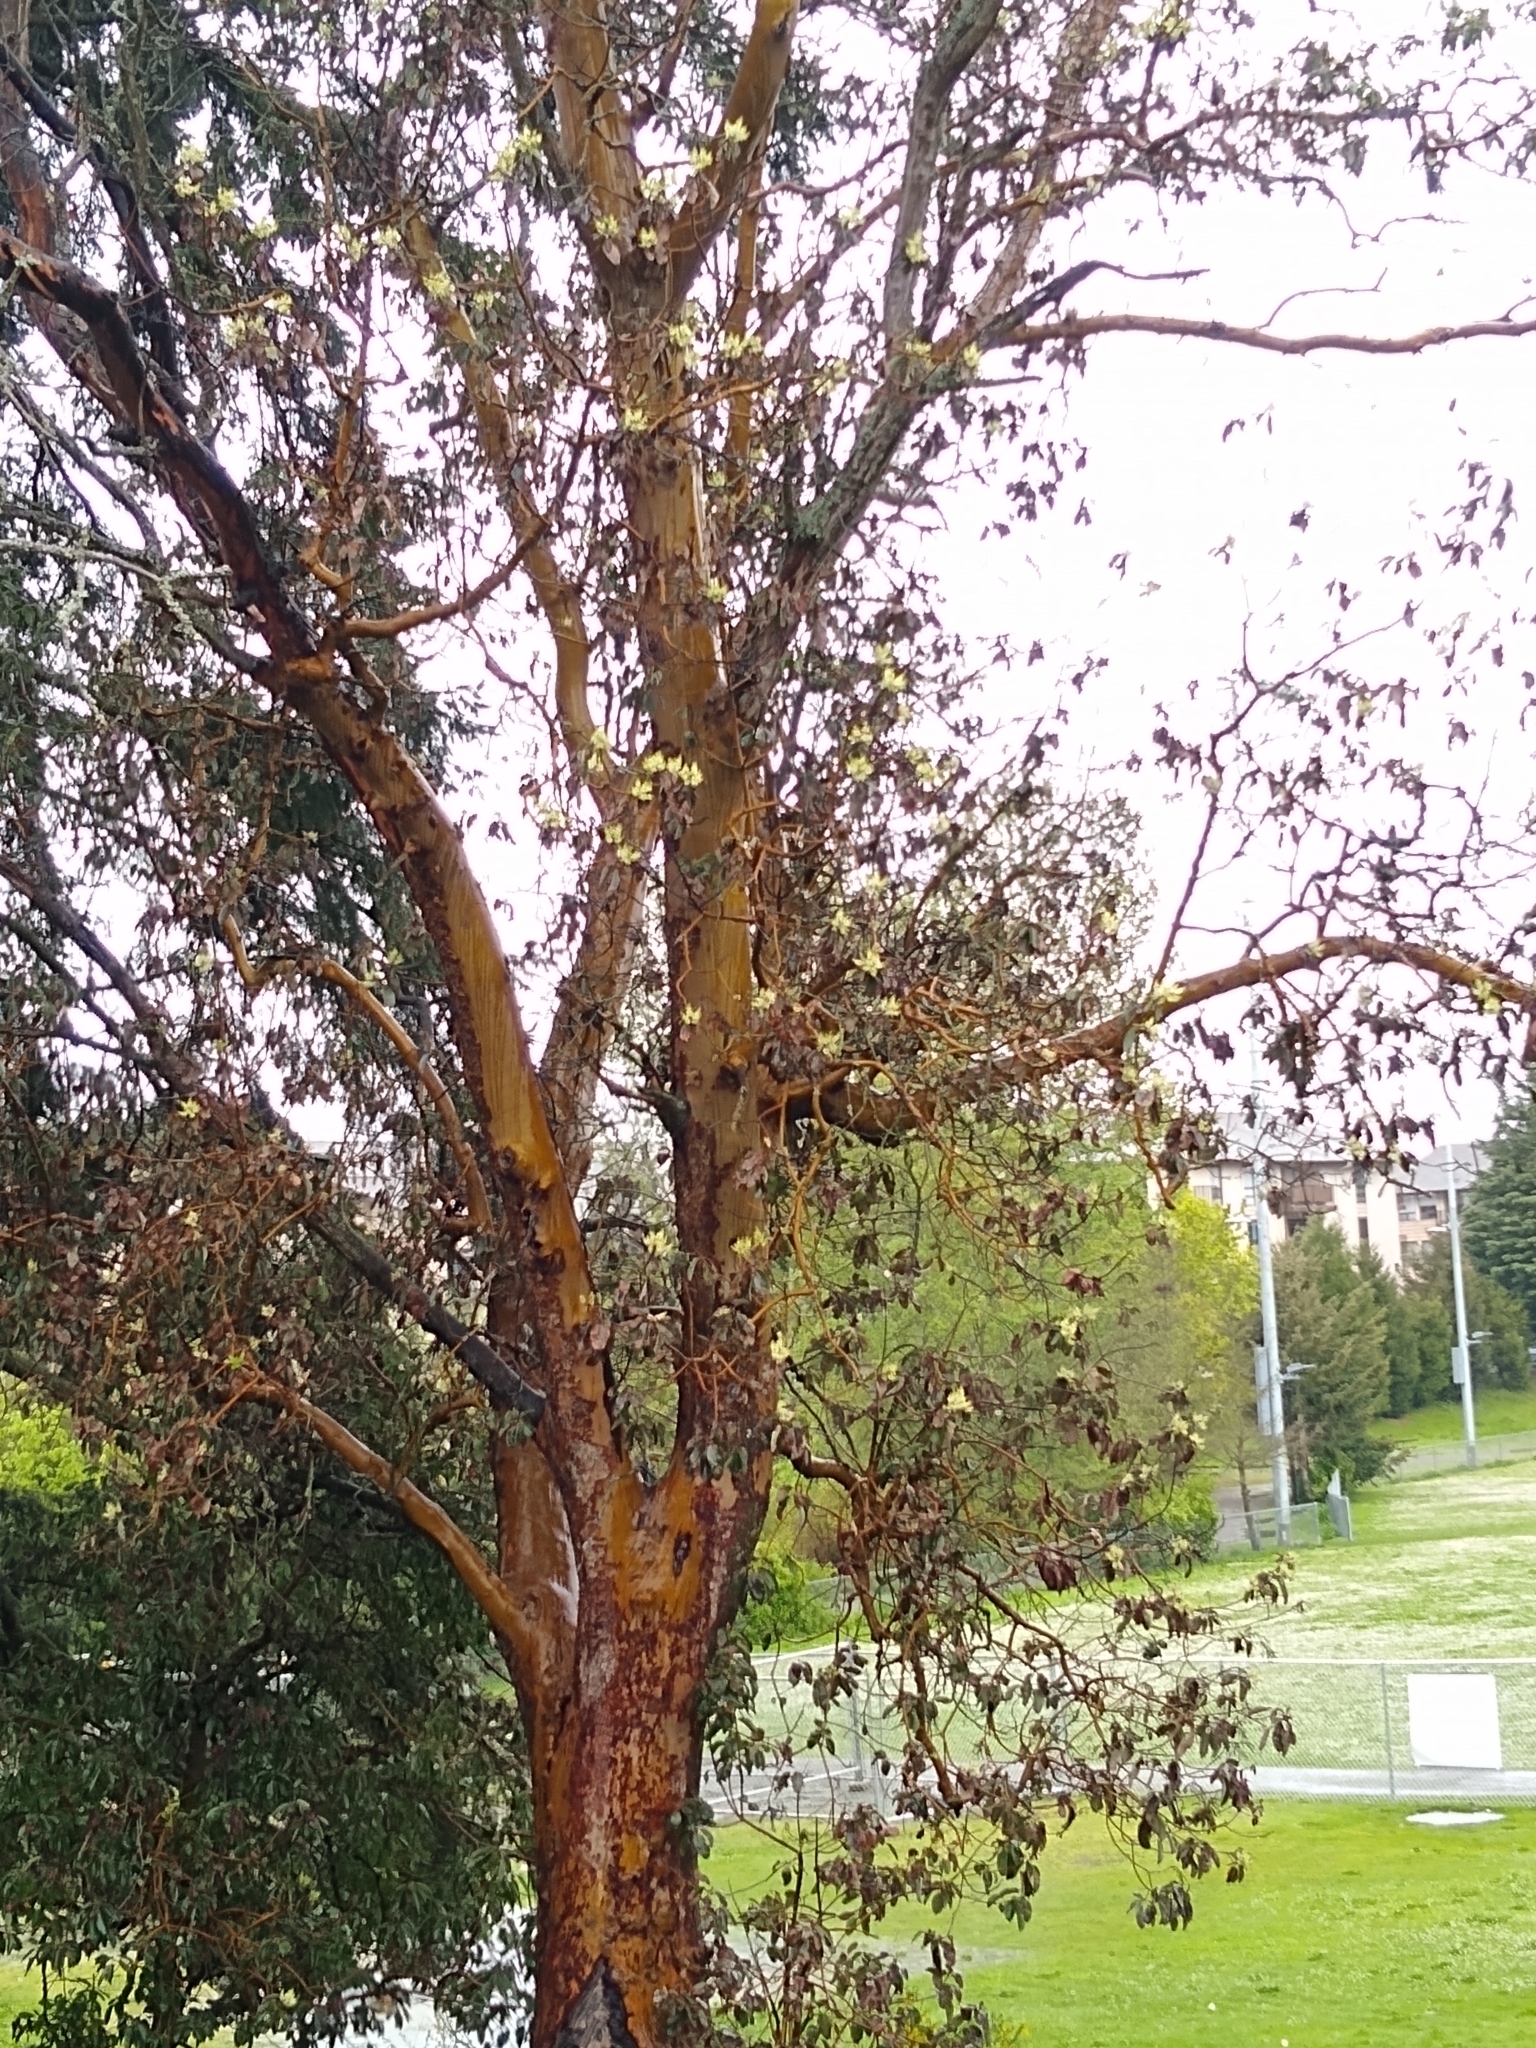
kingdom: Plantae
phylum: Tracheophyta
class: Magnoliopsida
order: Ericales
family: Ericaceae
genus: Arbutus
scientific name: Arbutus menziesii
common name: Pacific madrone
